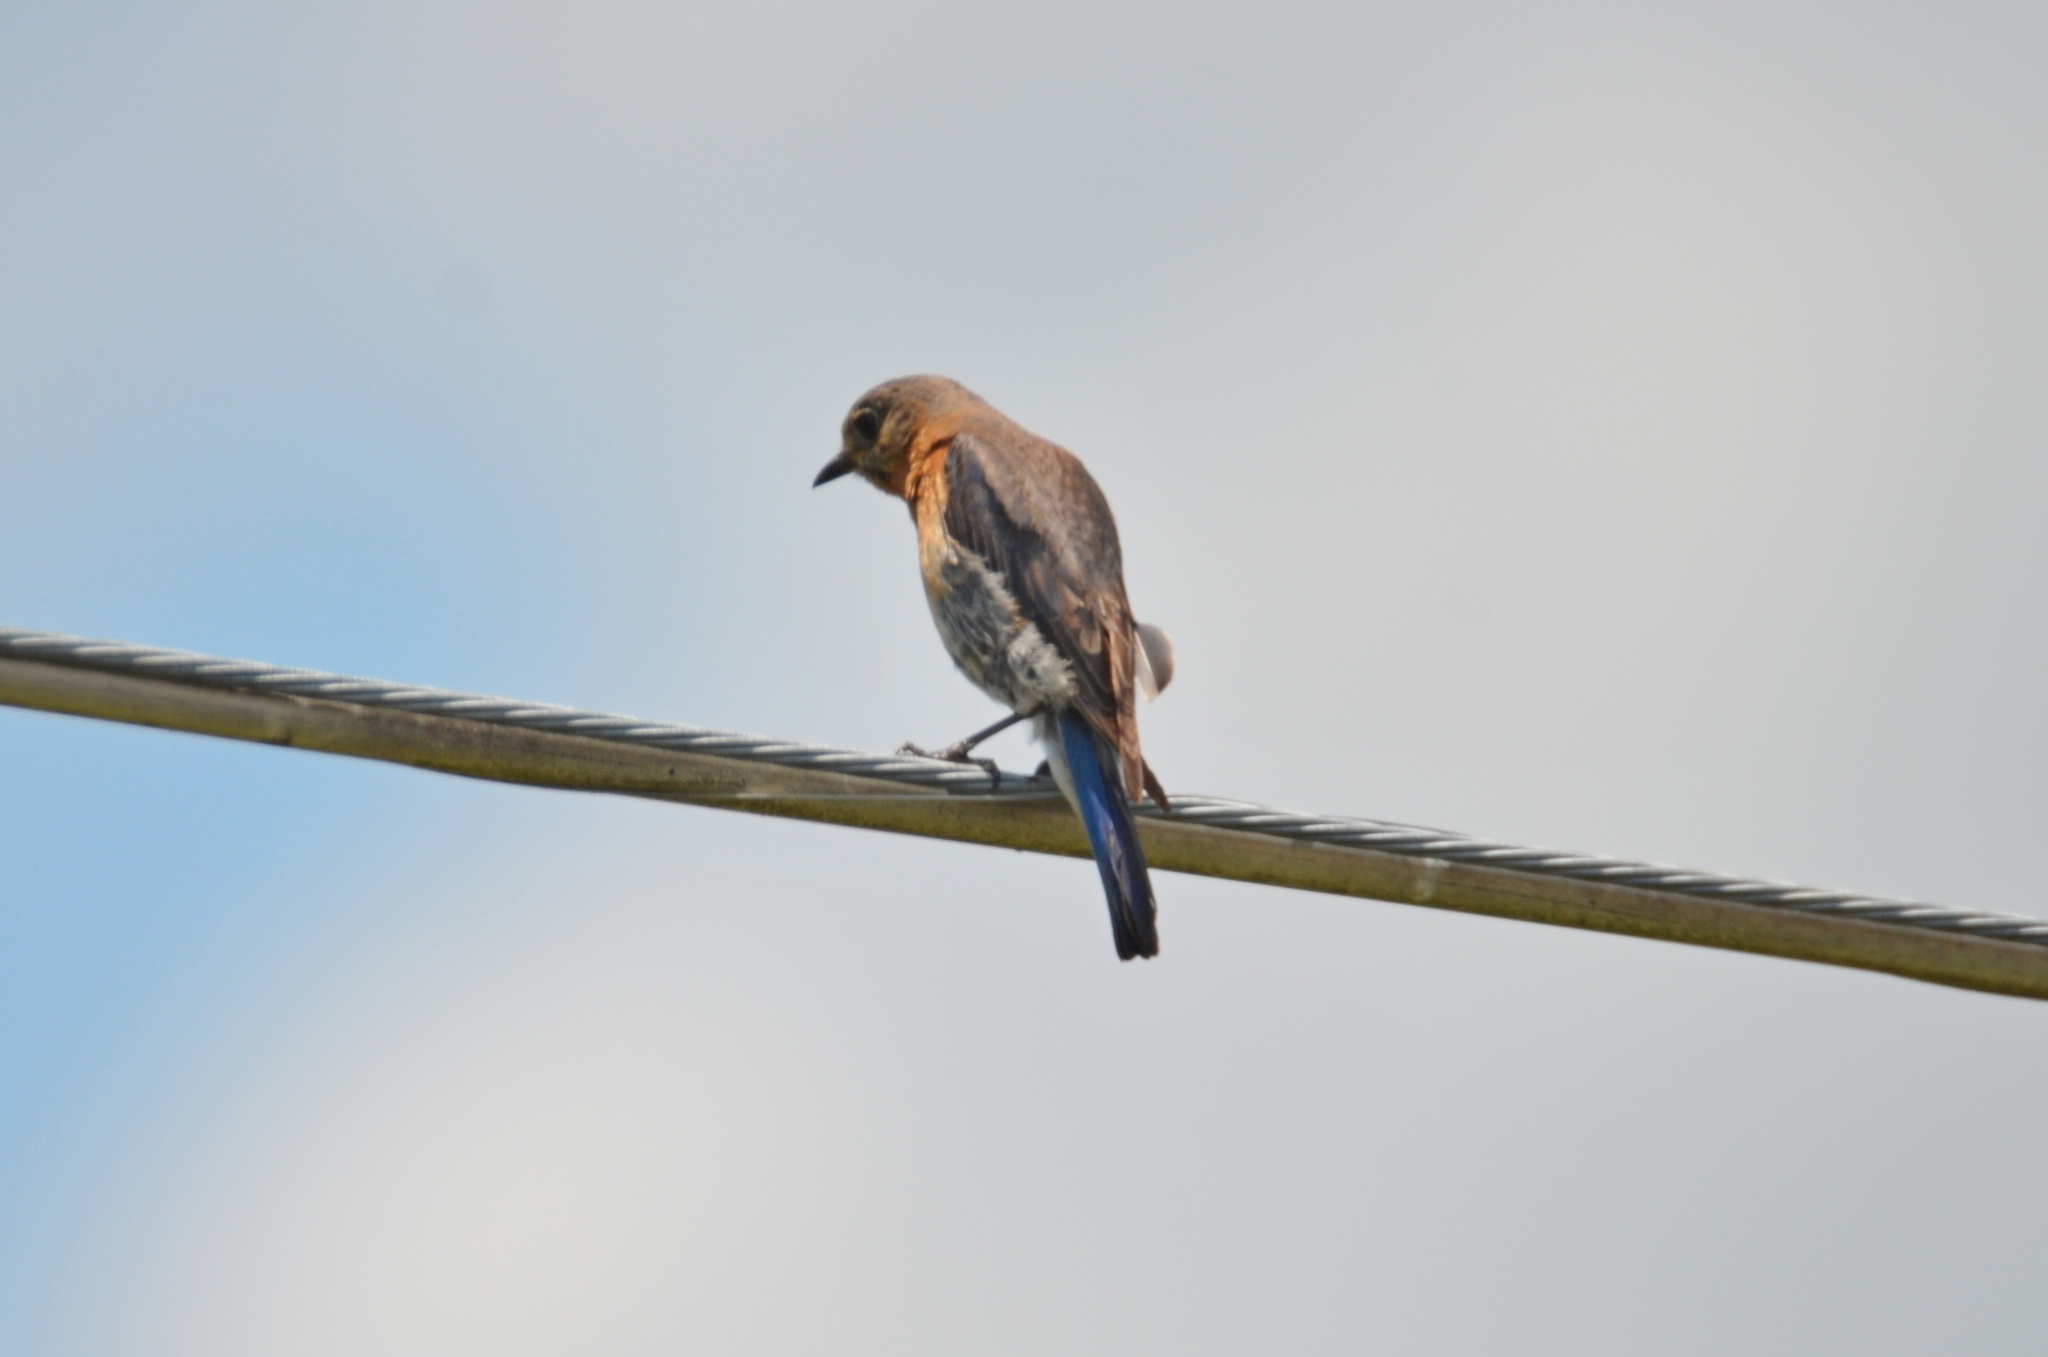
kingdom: Animalia
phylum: Chordata
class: Aves
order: Passeriformes
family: Turdidae
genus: Sialia
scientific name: Sialia sialis
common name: Eastern bluebird
